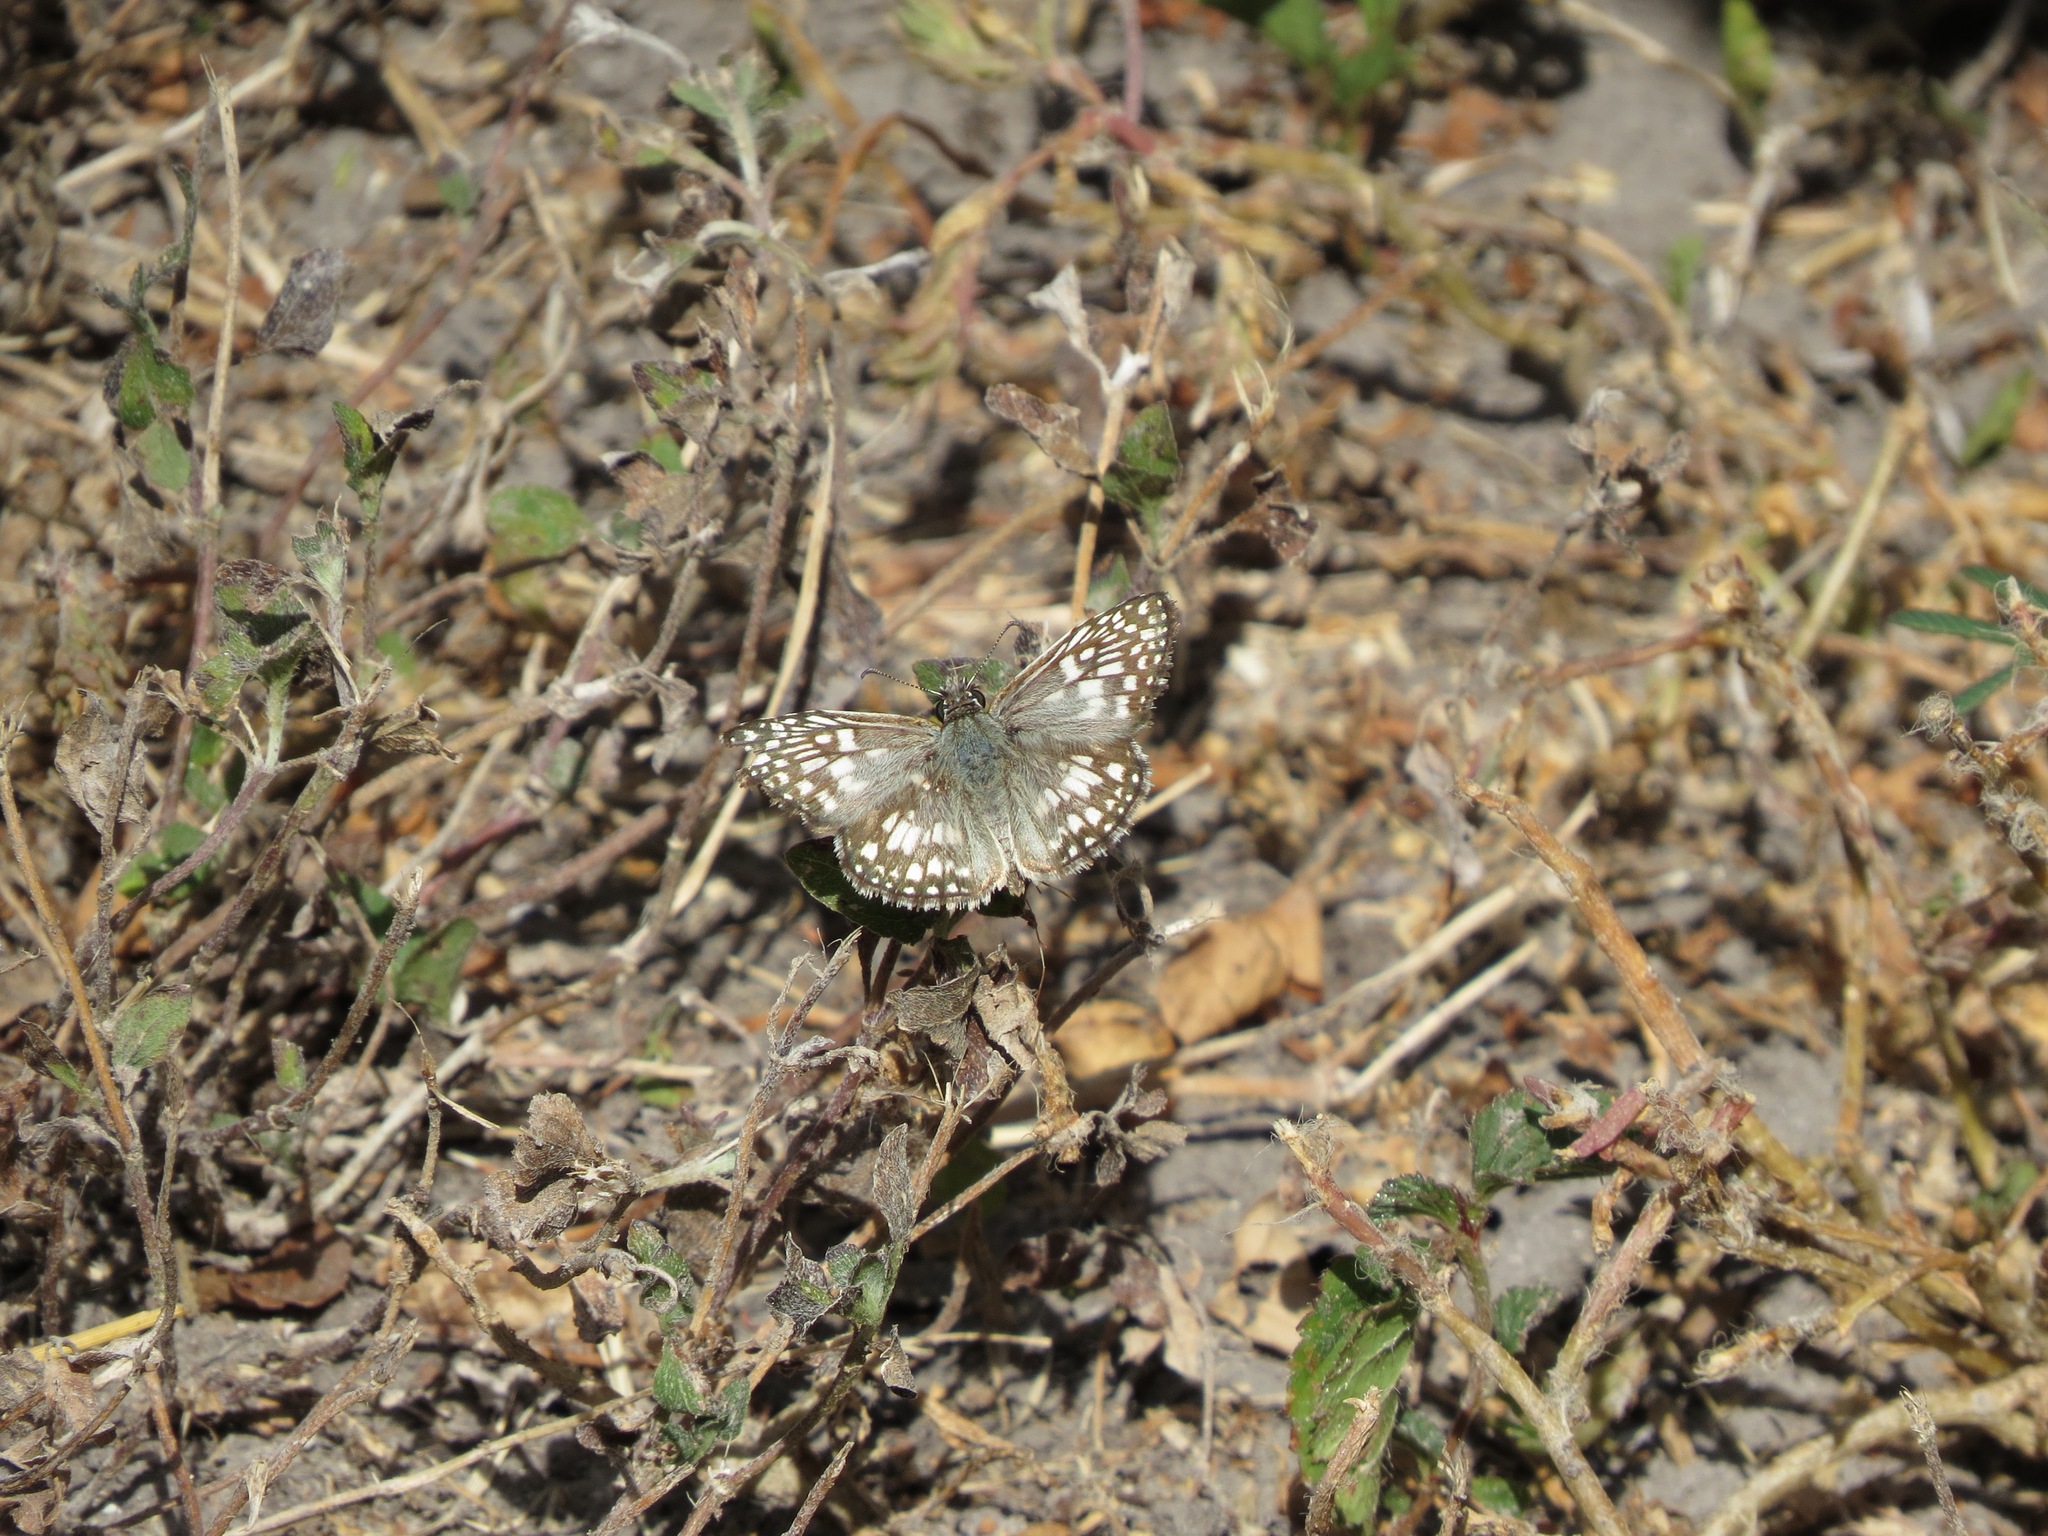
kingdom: Animalia
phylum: Arthropoda
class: Insecta
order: Lepidoptera
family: Hesperiidae
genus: Pyrgus
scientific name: Pyrgus oileus
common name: Tropical checkered-skipper
